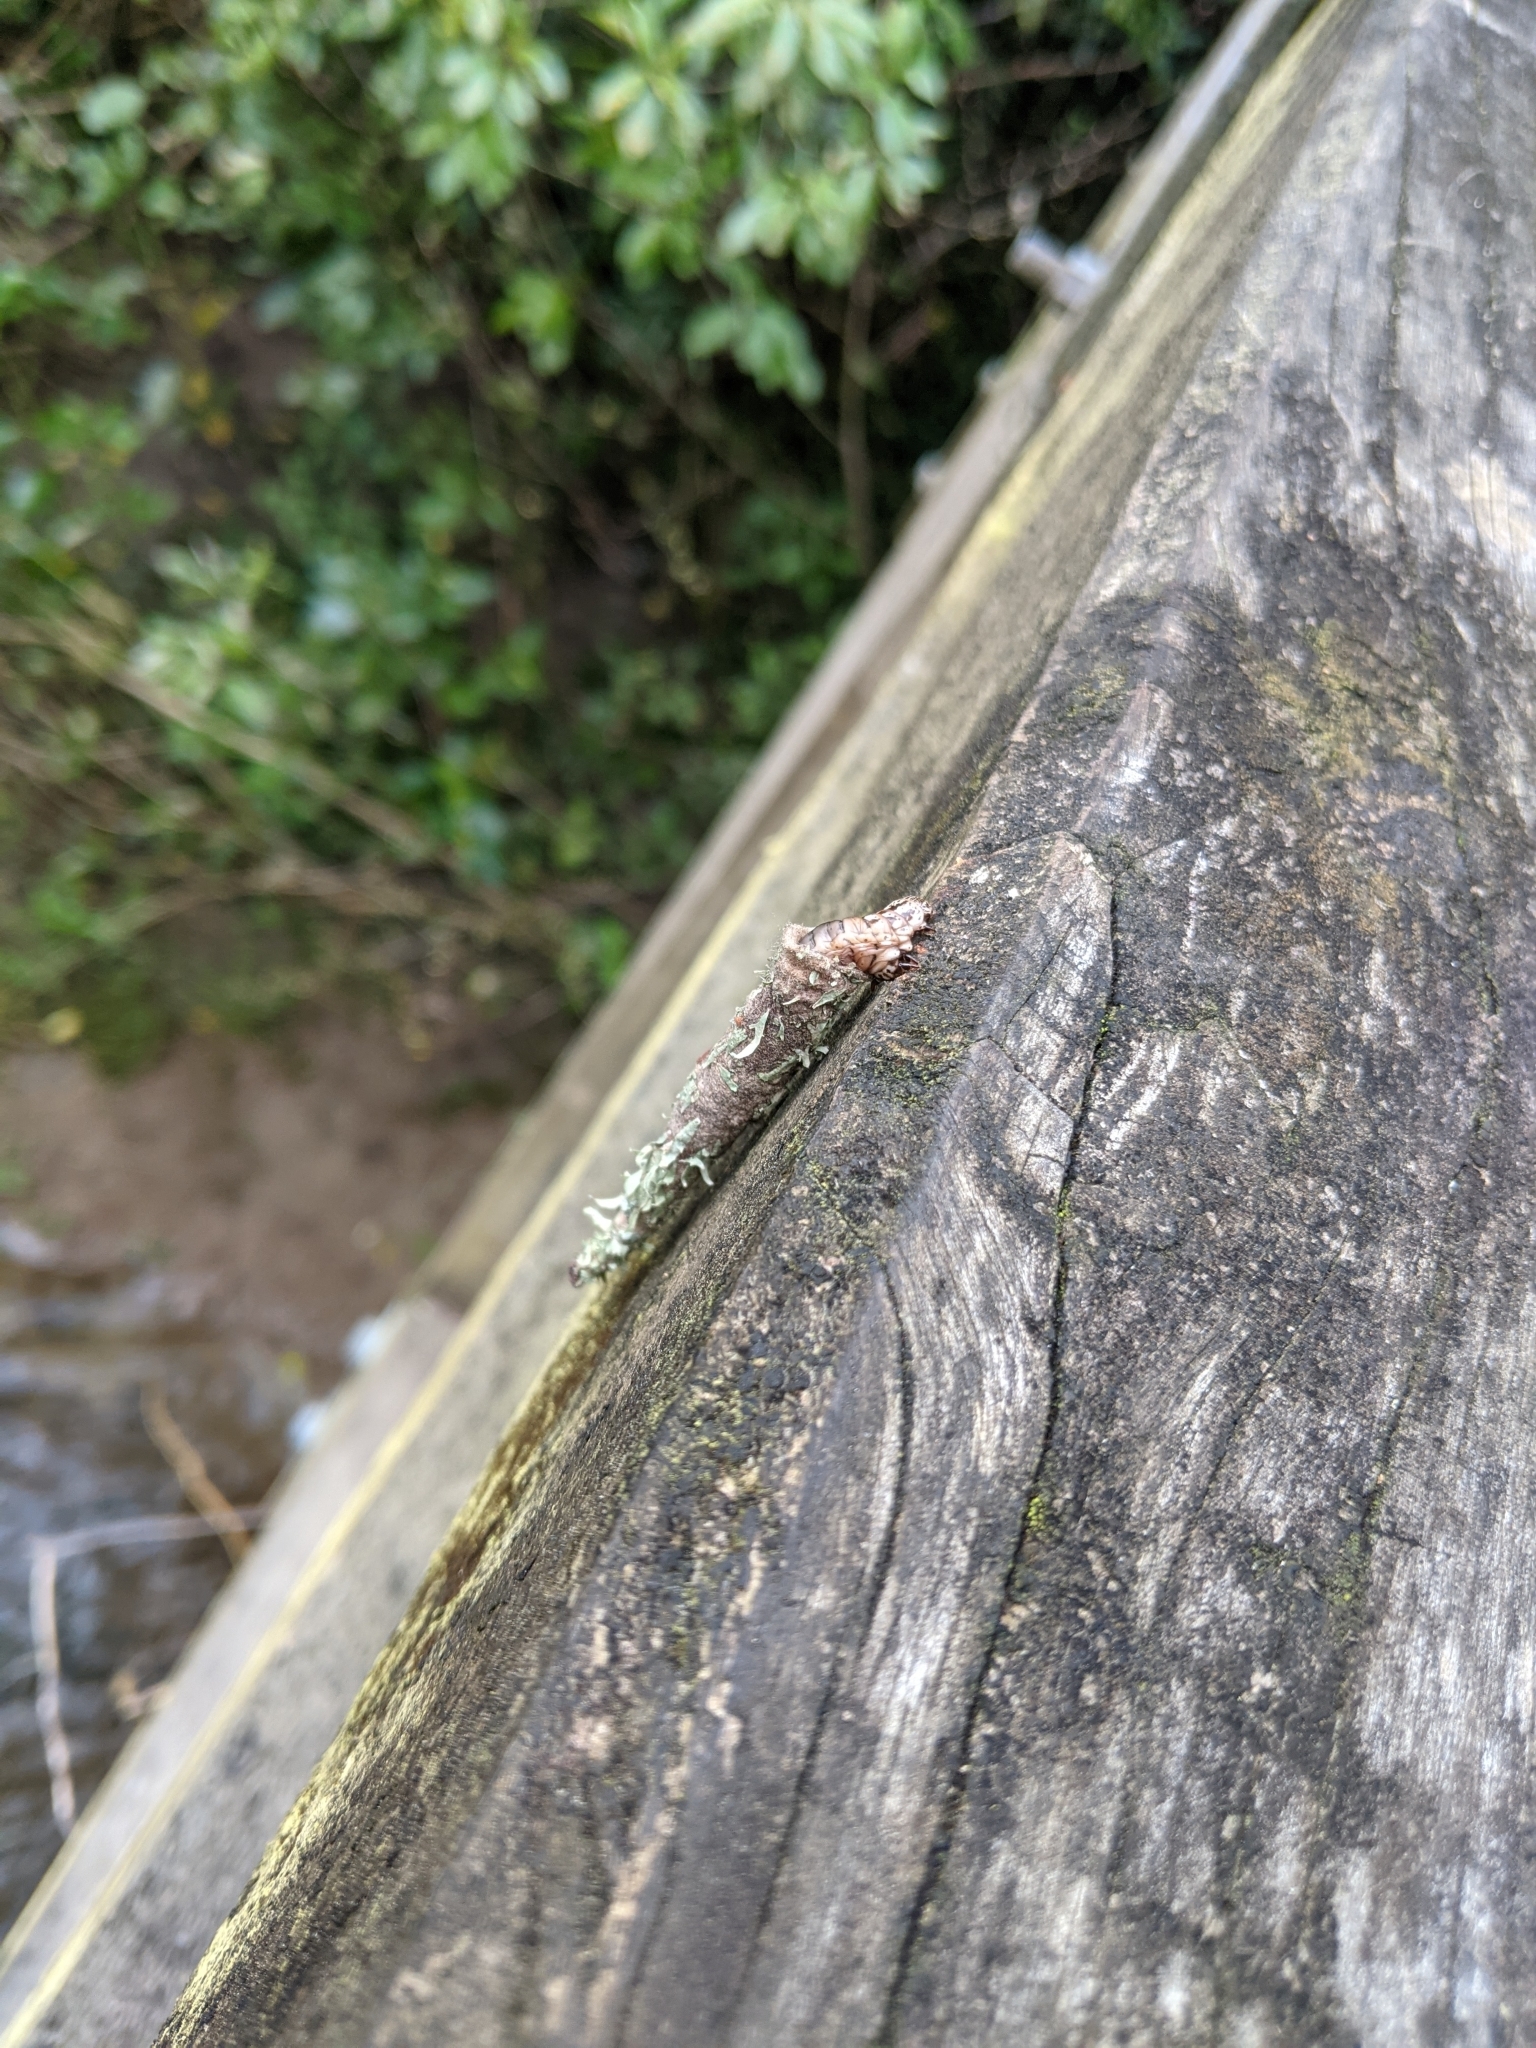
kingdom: Animalia
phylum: Arthropoda
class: Insecta
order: Lepidoptera
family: Psychidae
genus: Liothula
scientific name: Liothula omnivora
